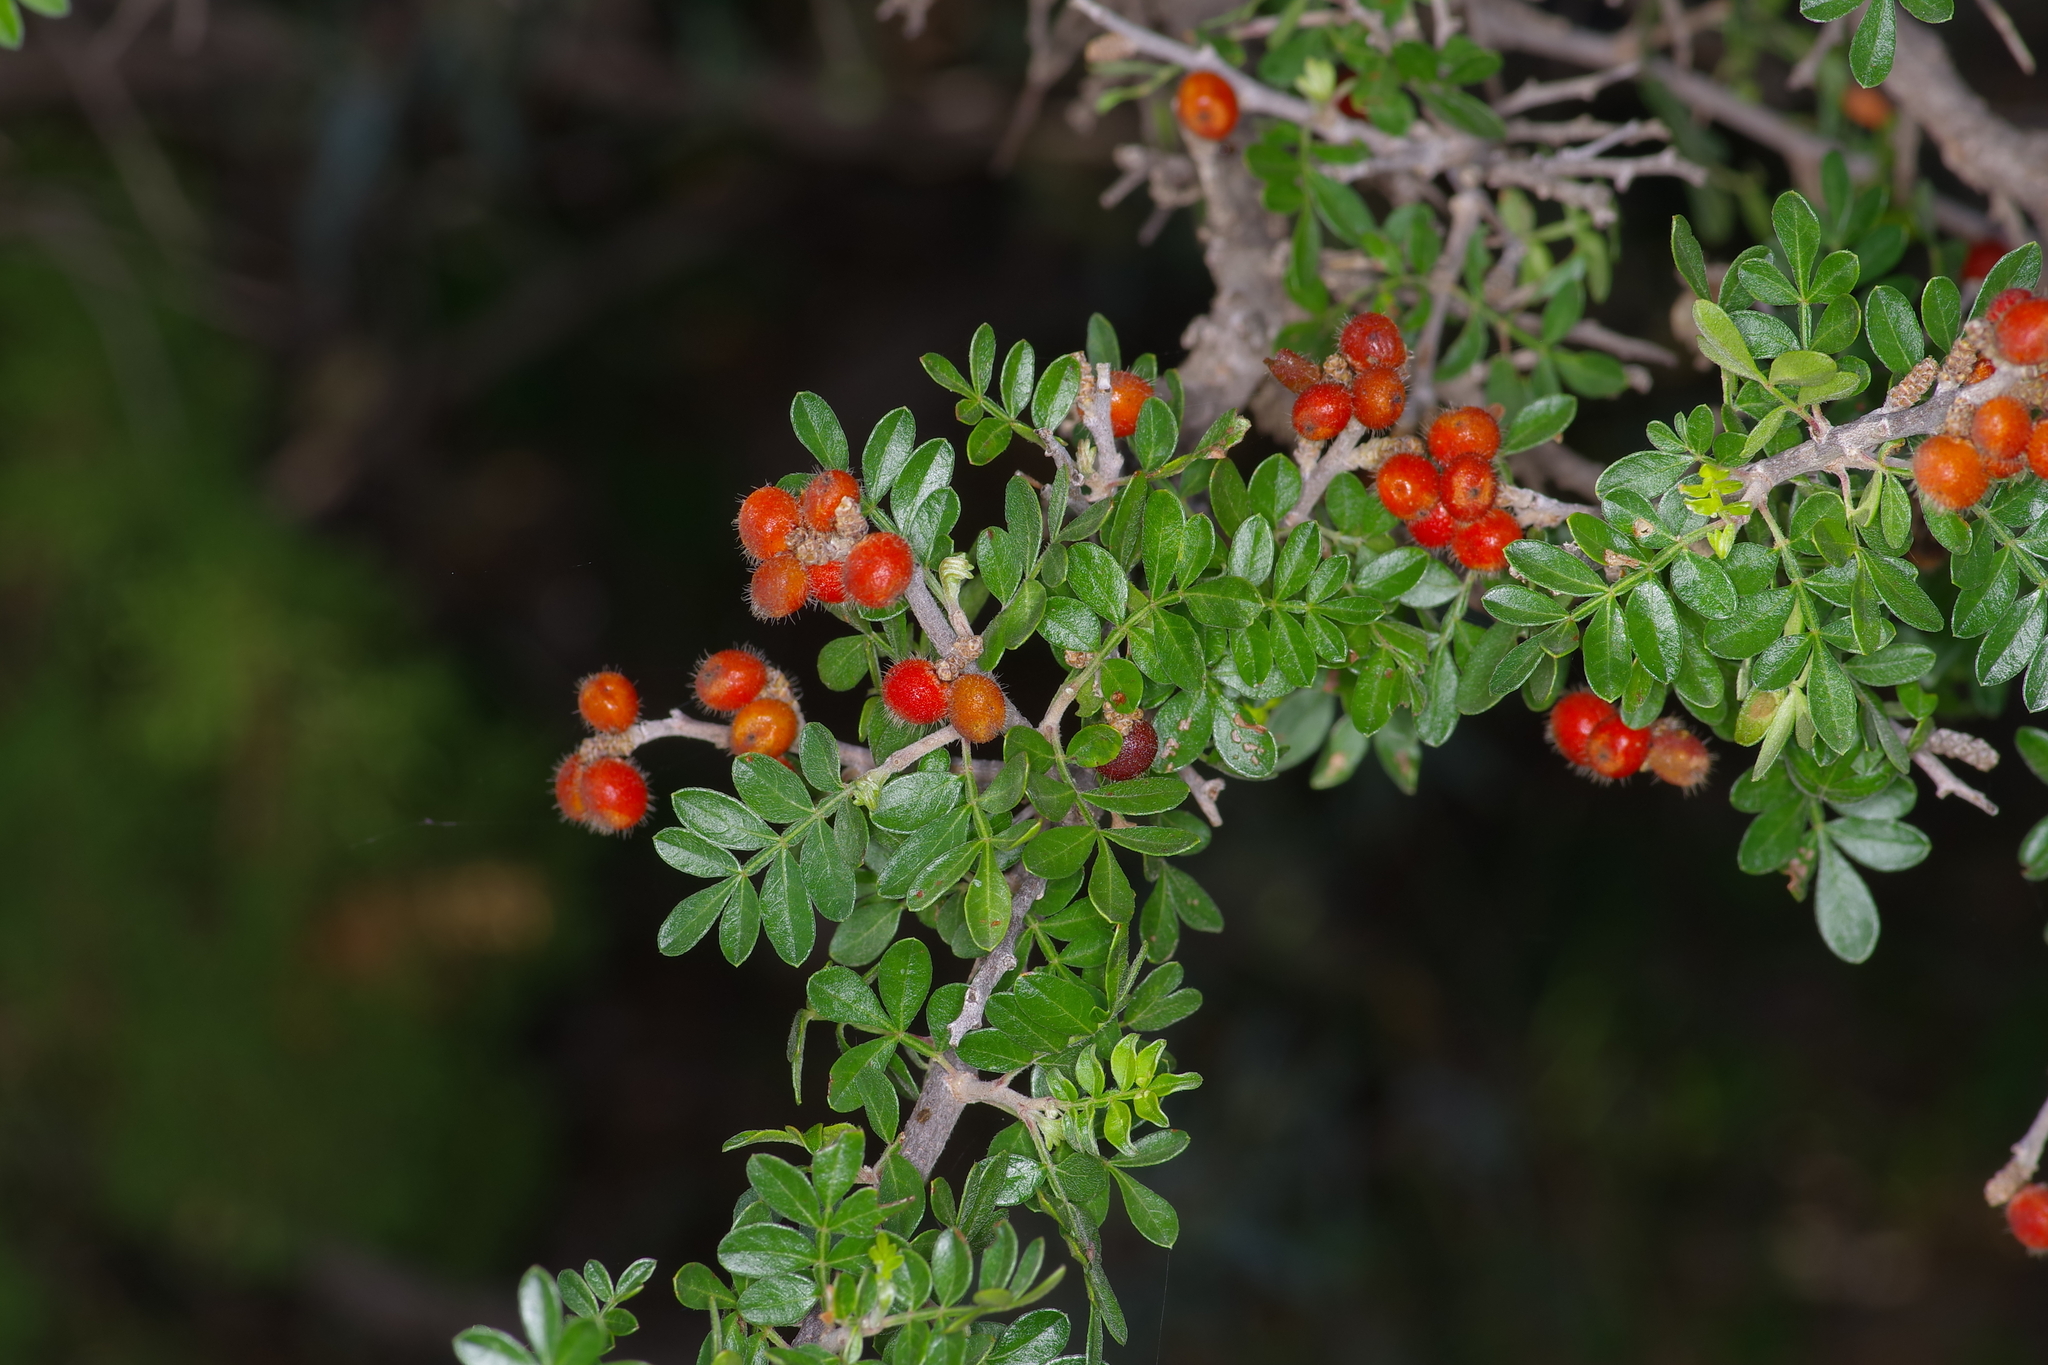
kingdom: Plantae
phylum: Tracheophyta
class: Magnoliopsida
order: Sapindales
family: Anacardiaceae
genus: Rhus
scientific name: Rhus microphylla
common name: Desert sumac
